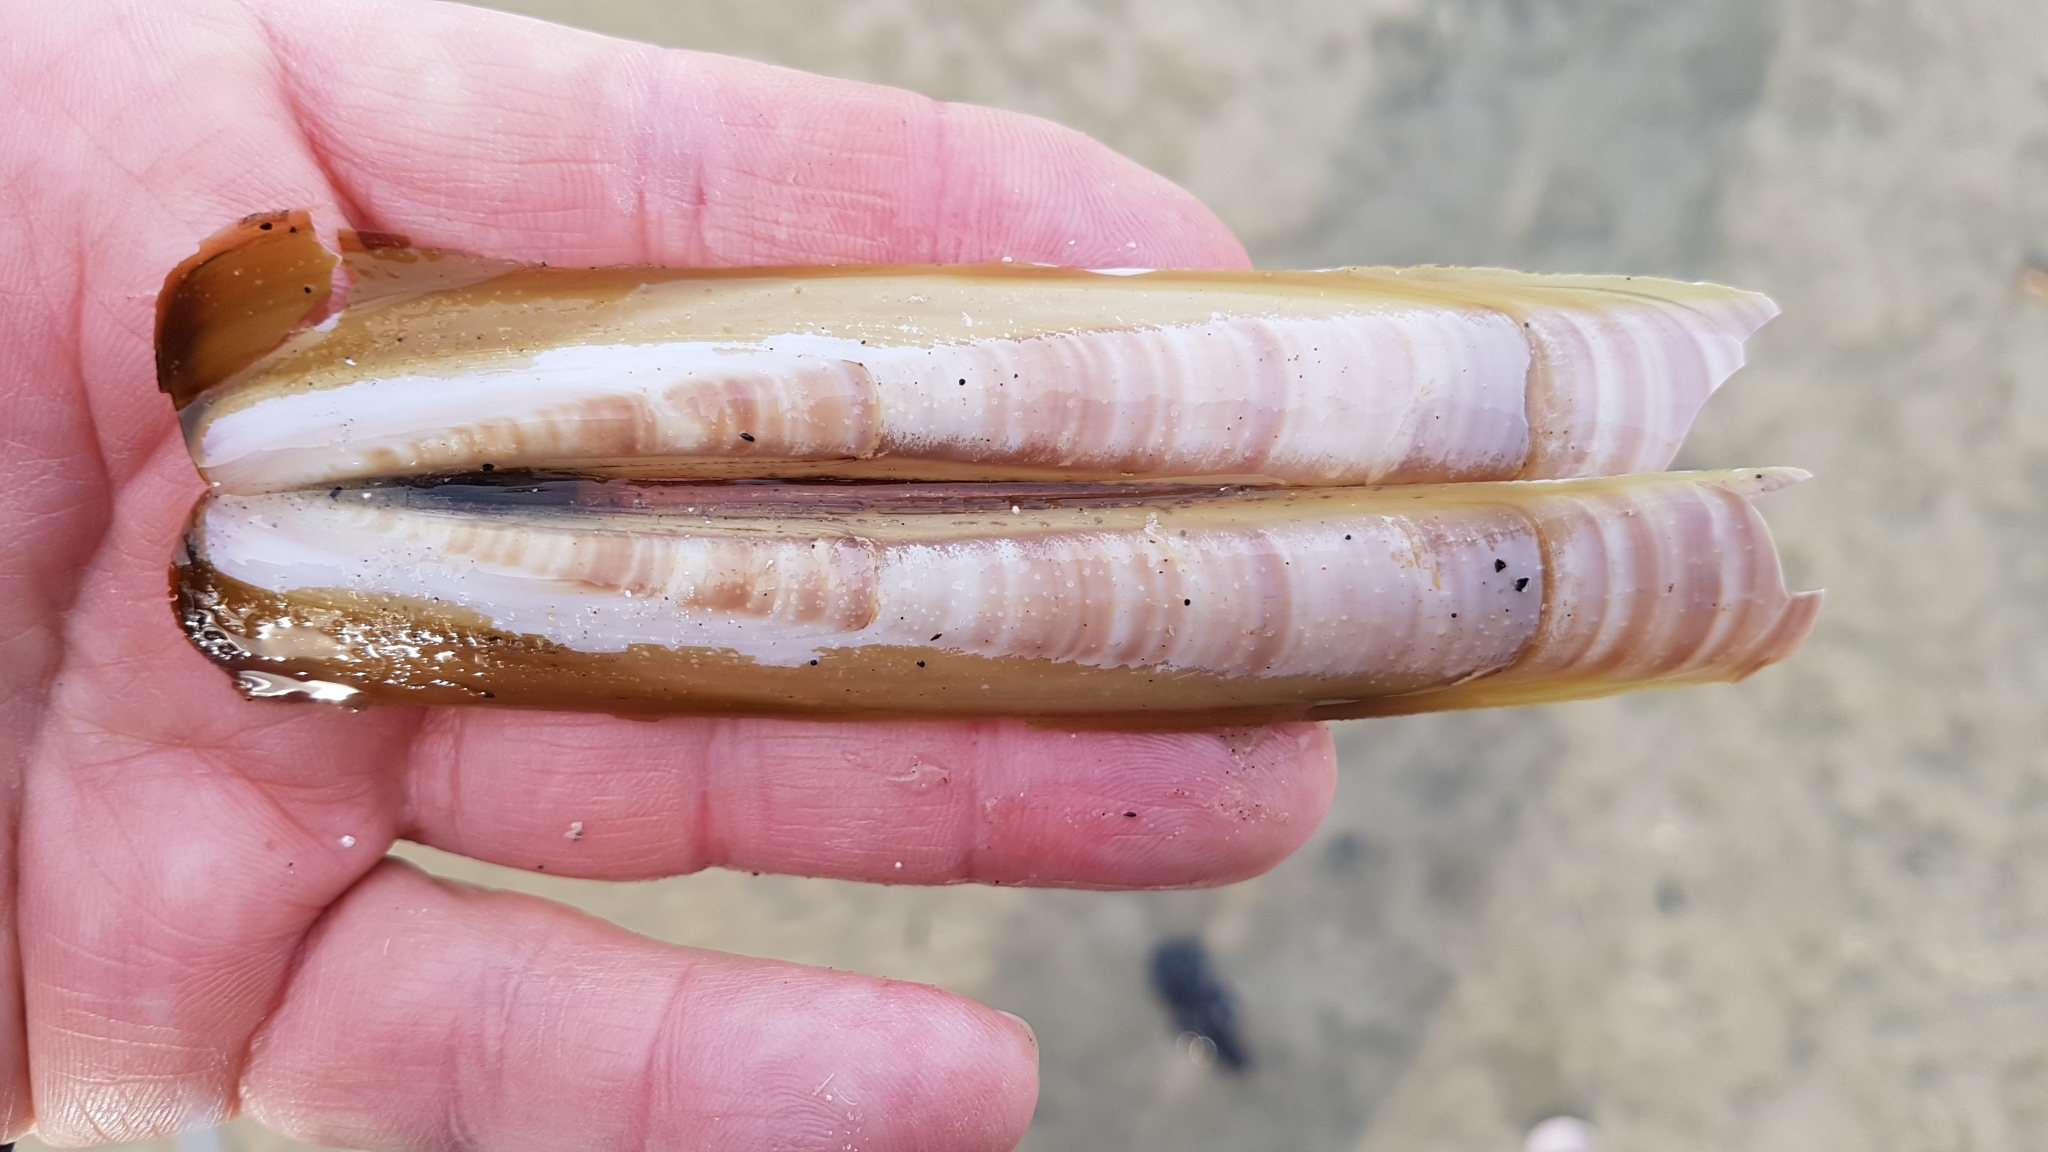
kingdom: Animalia
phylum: Mollusca
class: Bivalvia
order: Adapedonta
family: Pharidae
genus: Ensis
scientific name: Ensis leei
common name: American jack knife clam
